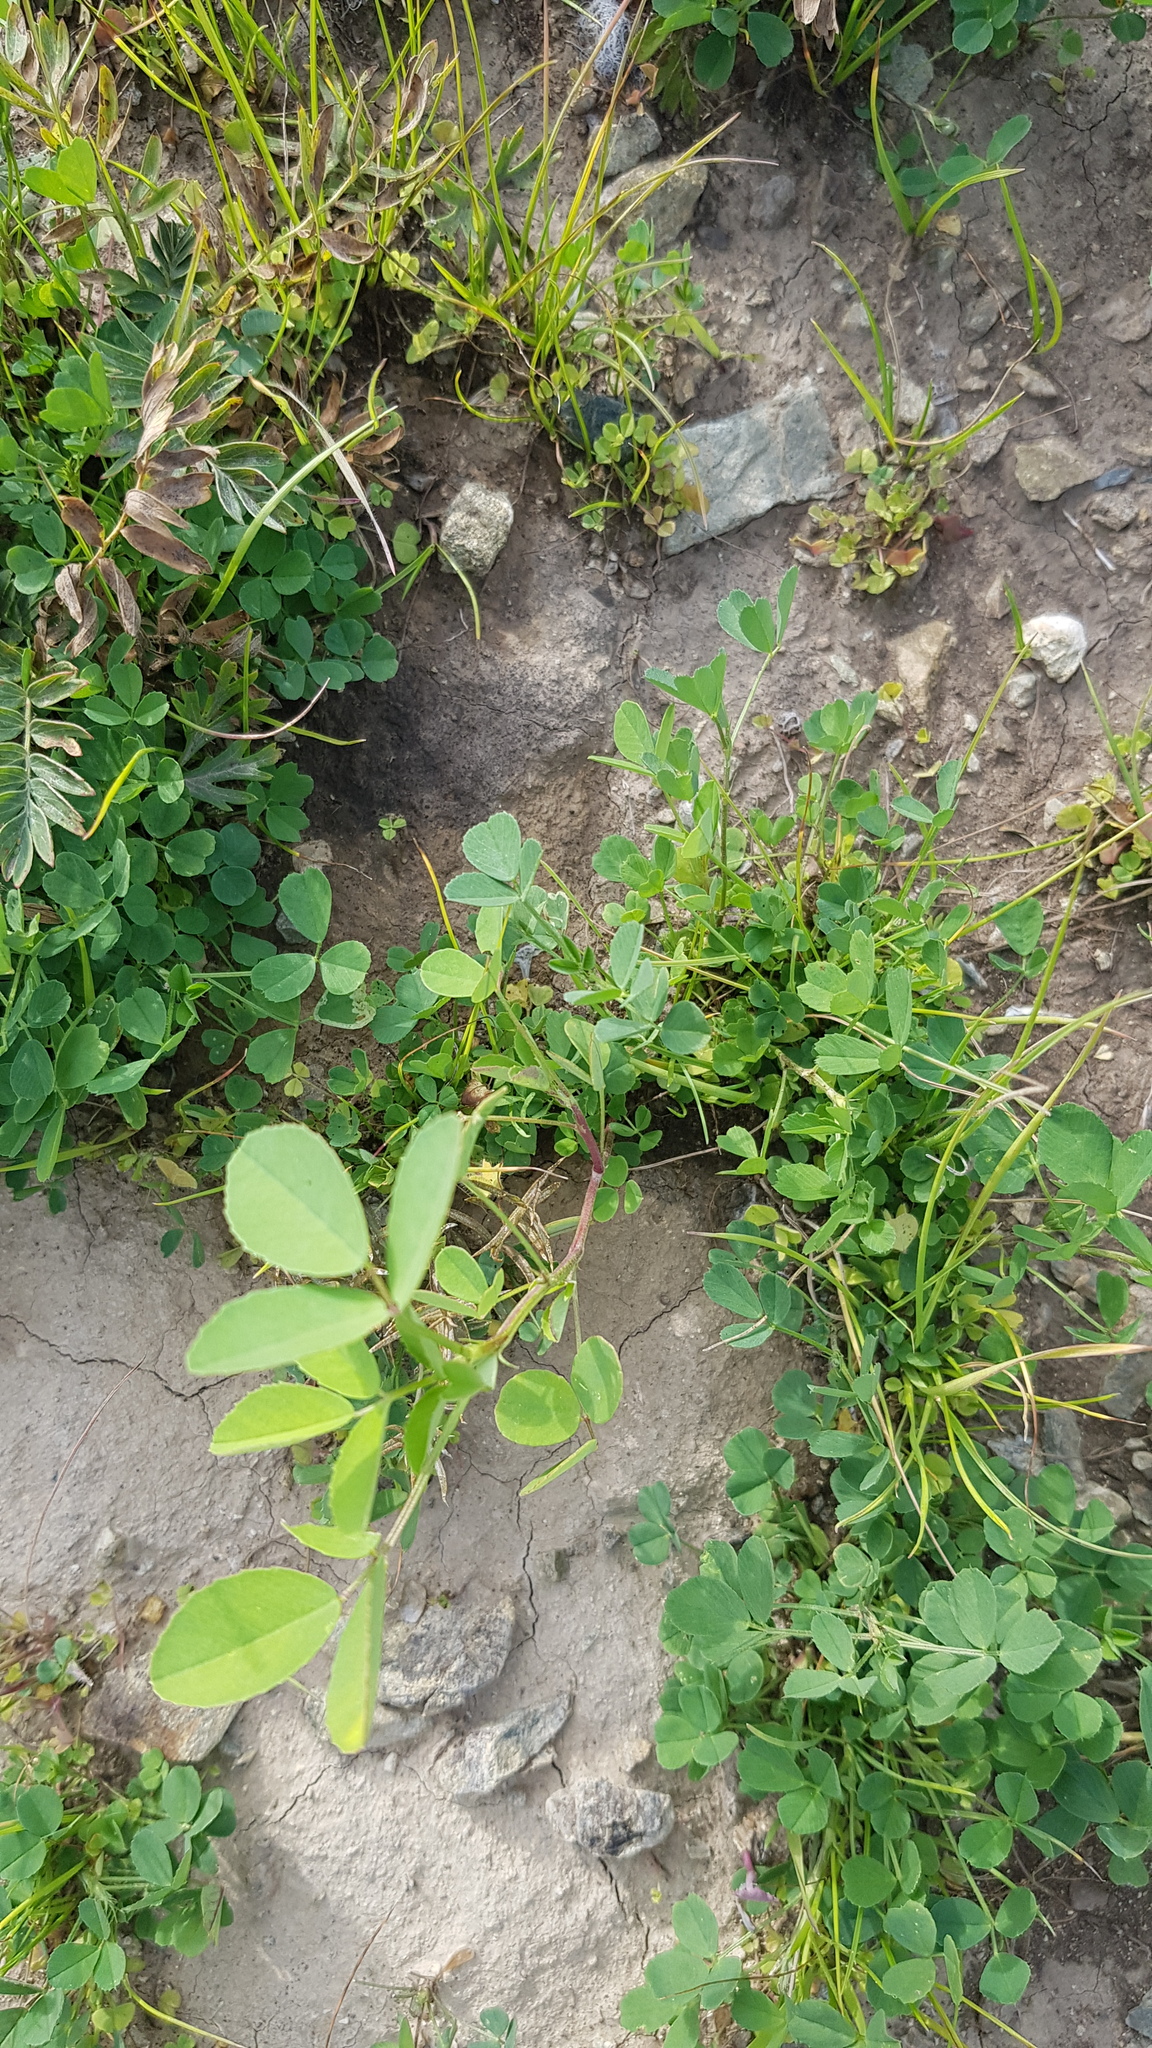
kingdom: Plantae
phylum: Tracheophyta
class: Magnoliopsida
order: Fabales
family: Fabaceae
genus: Medicago
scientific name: Medicago lupulina
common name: Black medick
